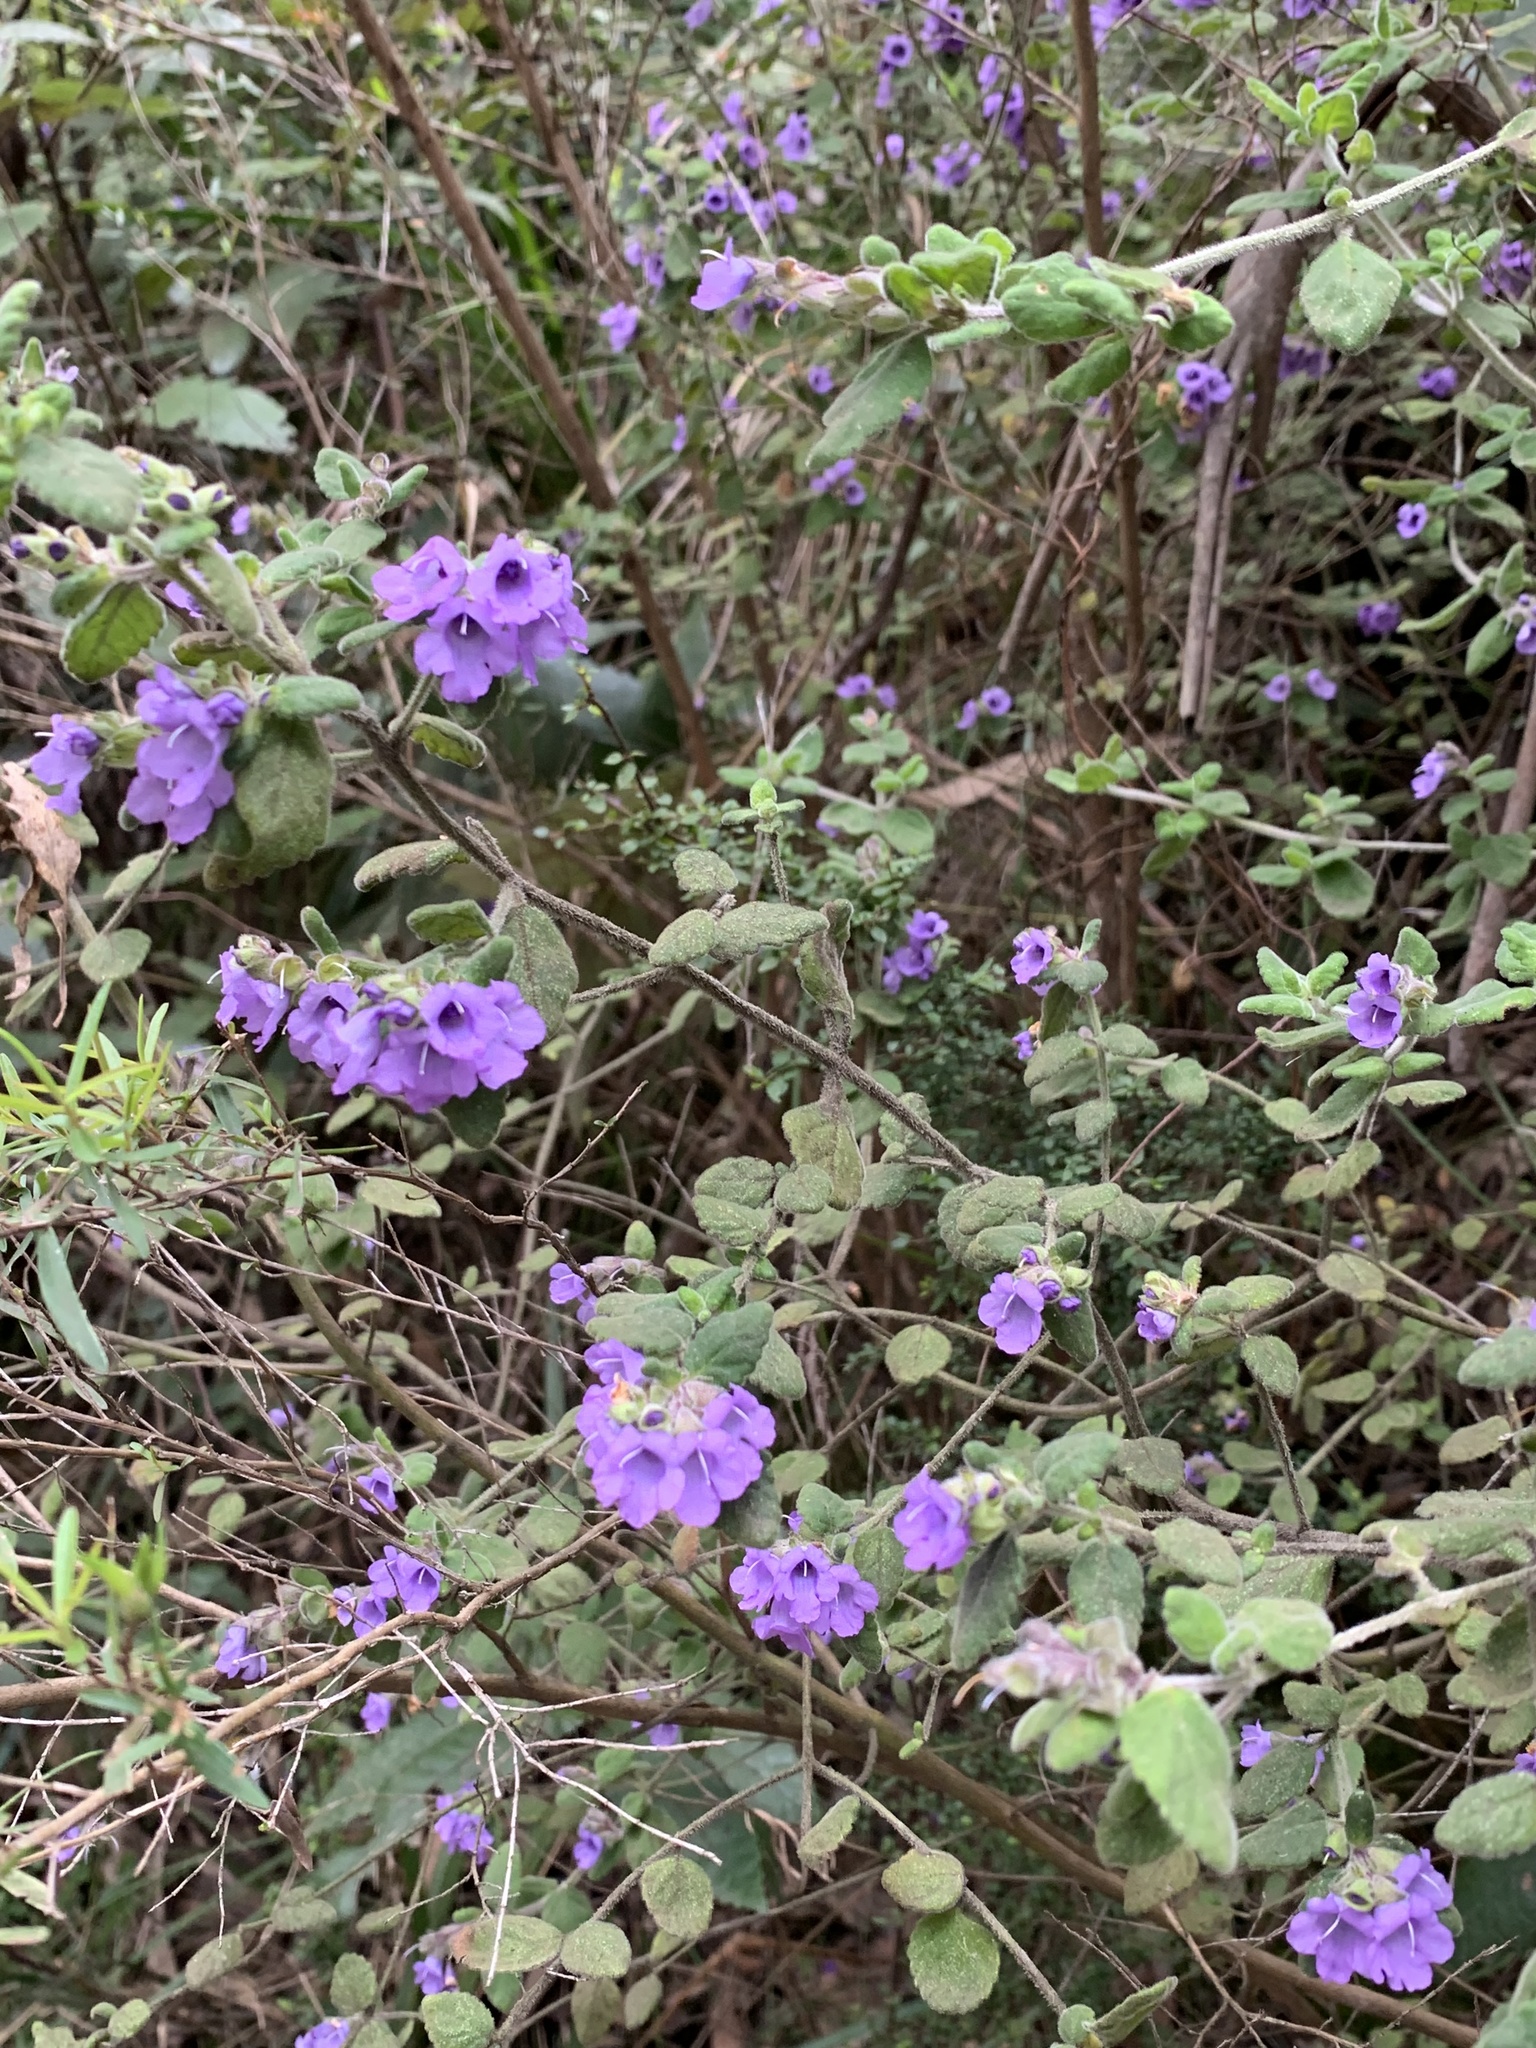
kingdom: Plantae
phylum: Tracheophyta
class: Magnoliopsida
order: Lamiales
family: Lamiaceae
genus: Prostanthera
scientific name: Prostanthera incana
